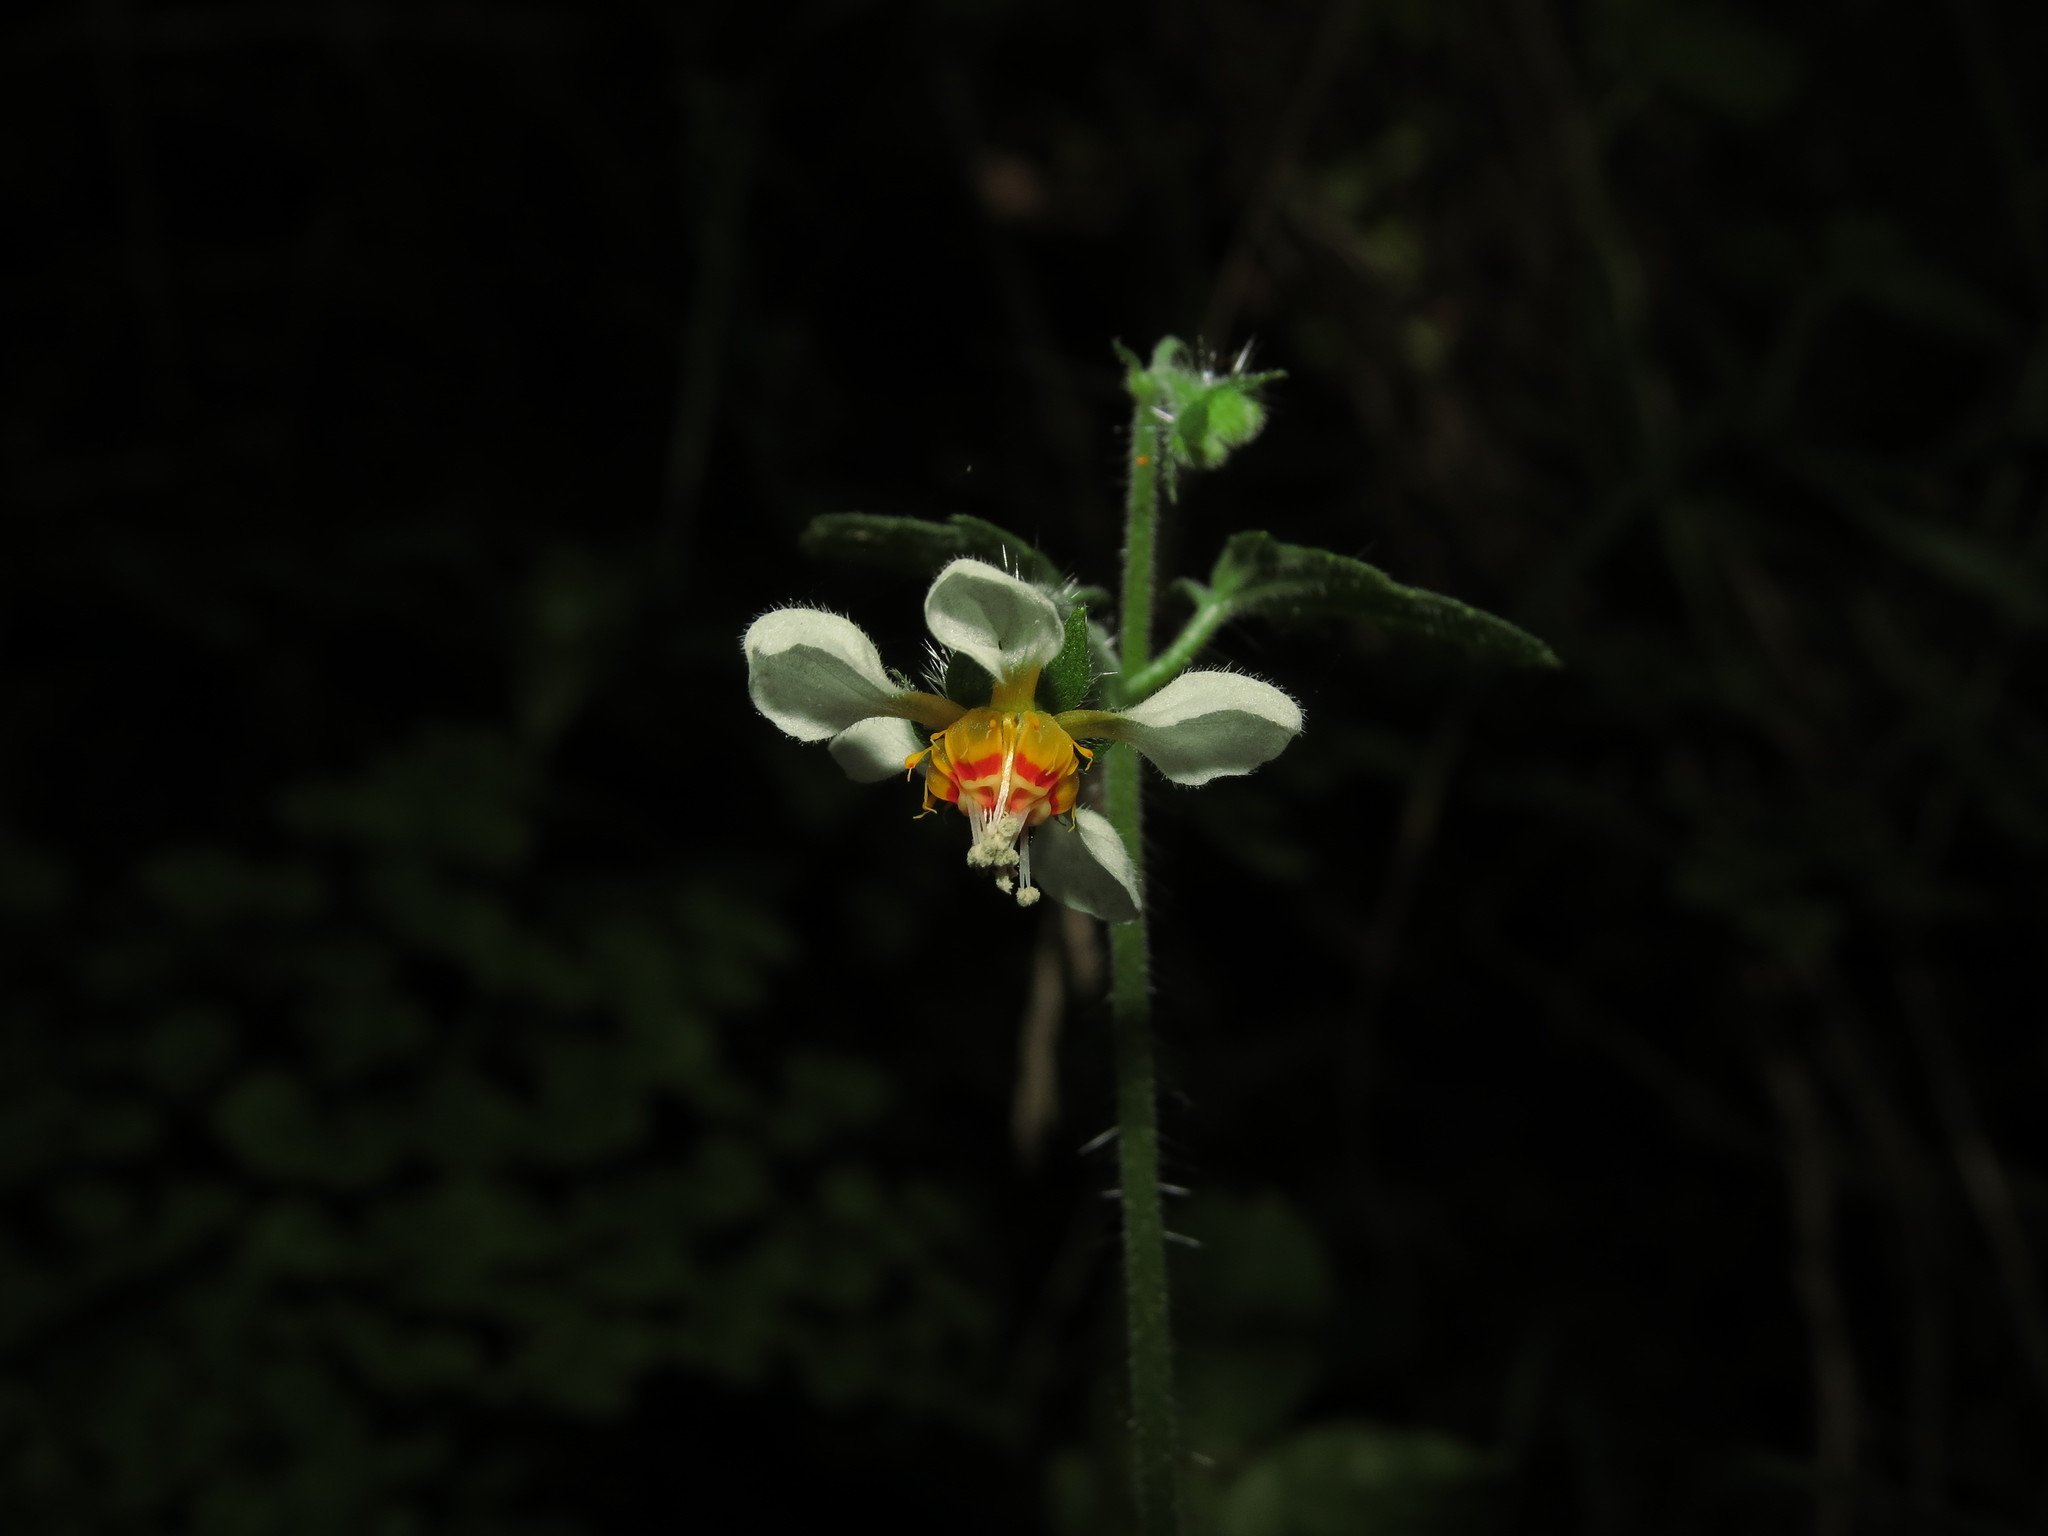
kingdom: Plantae
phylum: Tracheophyta
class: Magnoliopsida
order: Cornales
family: Loasaceae
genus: Loasa
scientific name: Loasa triloba
